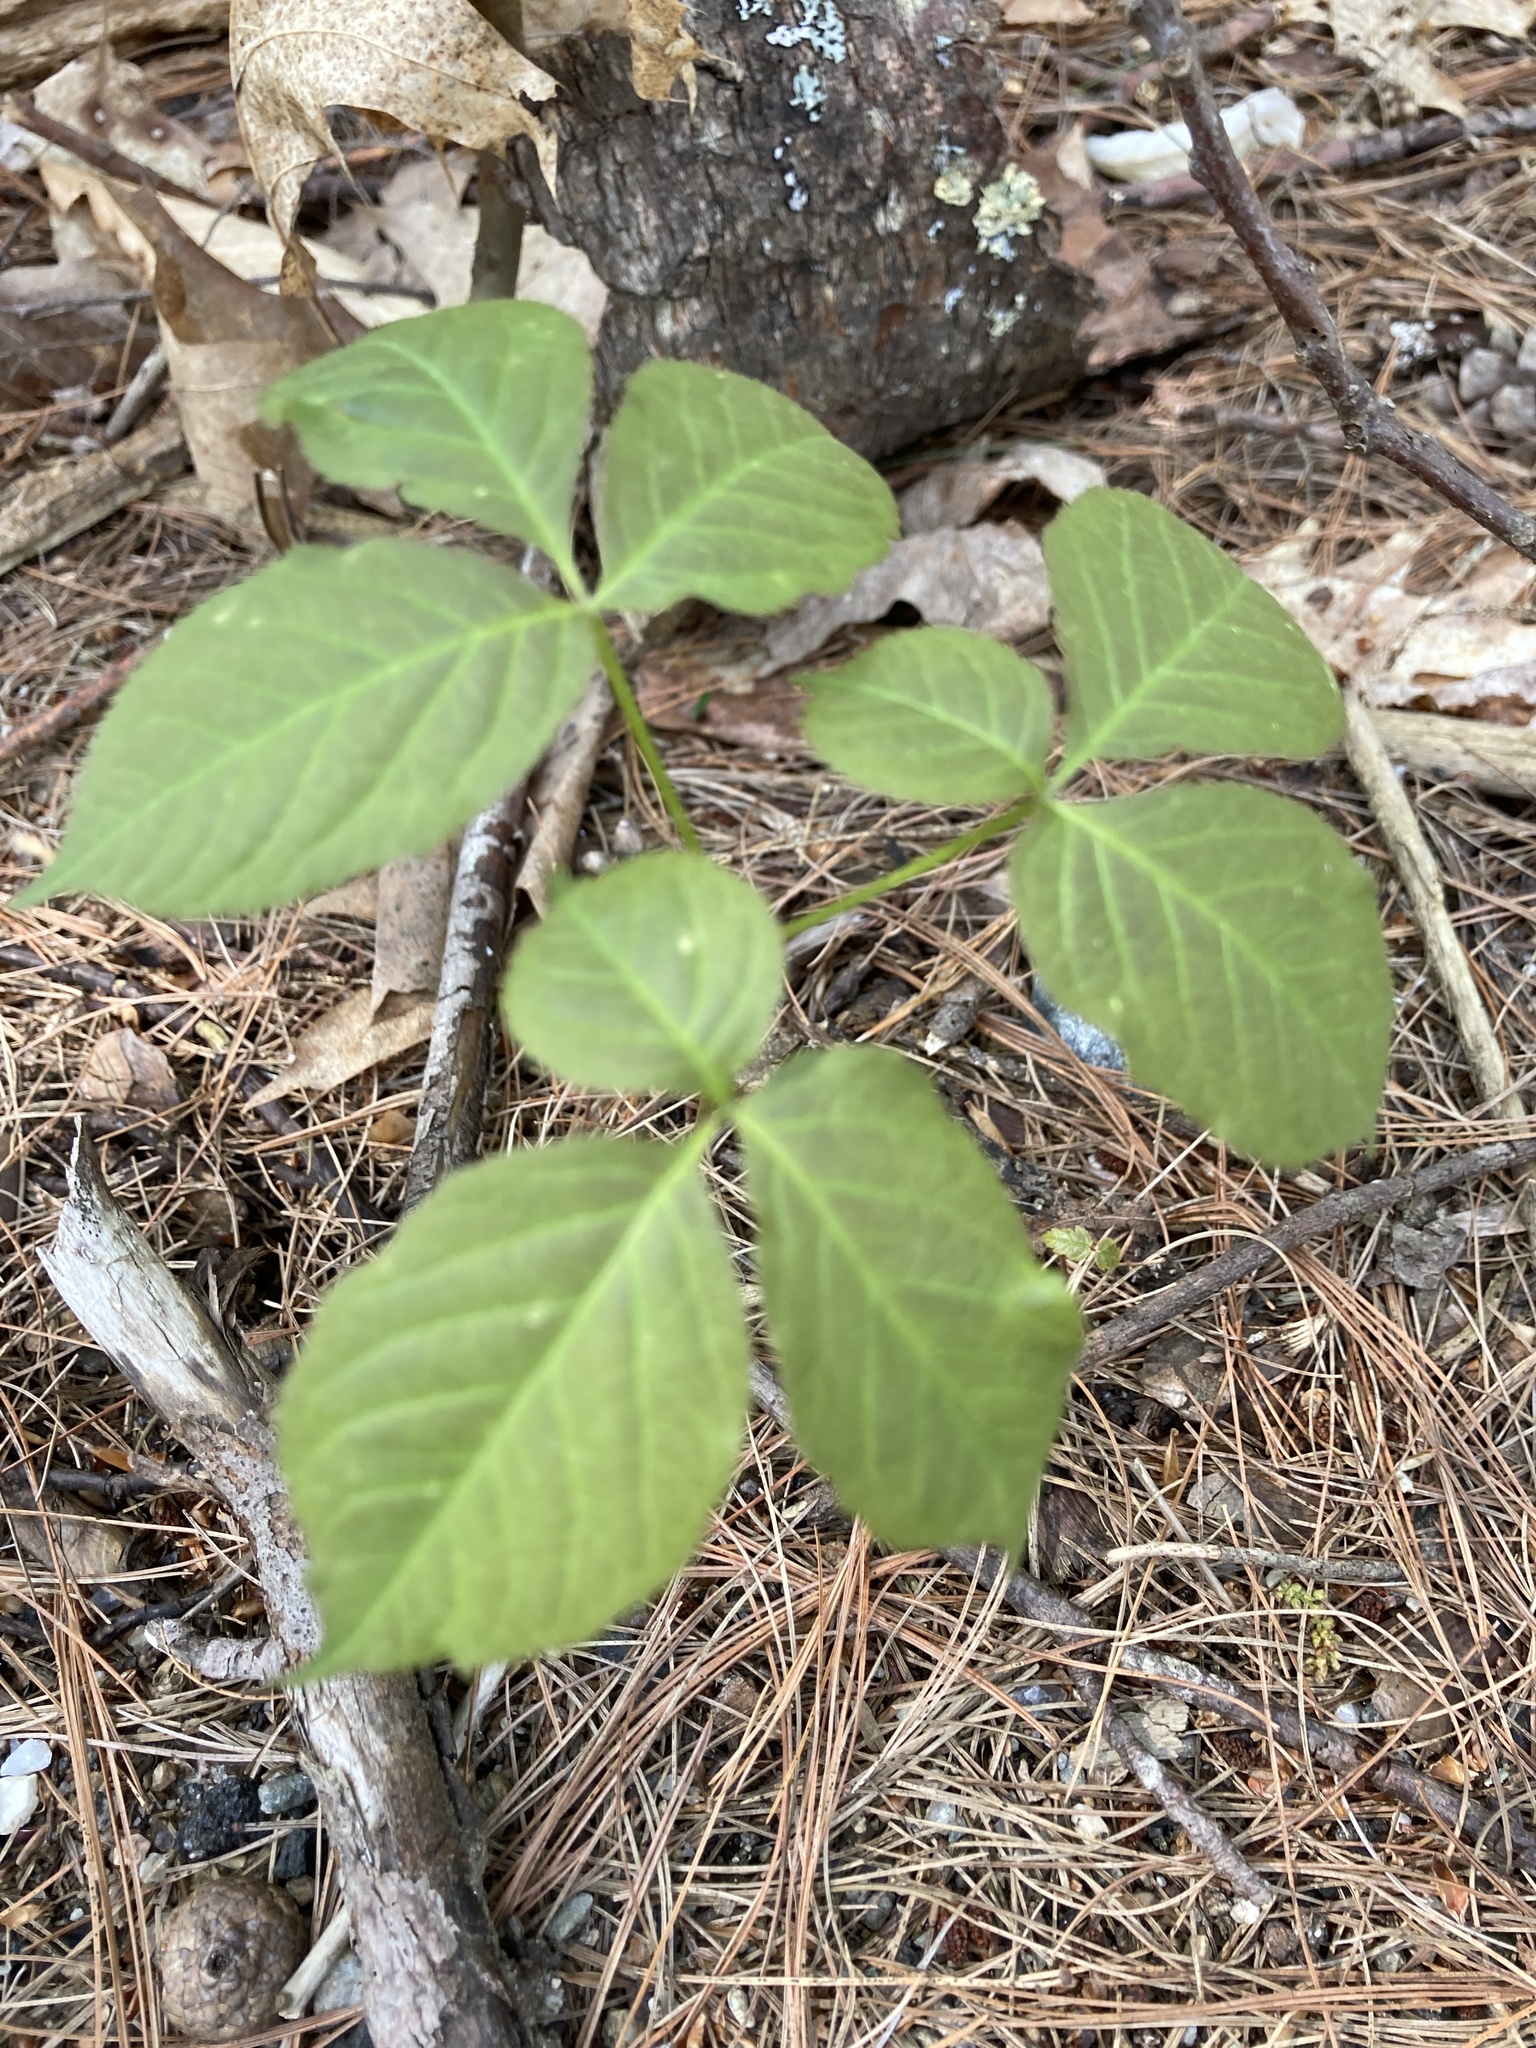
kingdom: Plantae
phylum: Tracheophyta
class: Magnoliopsida
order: Apiales
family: Araliaceae
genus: Aralia
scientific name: Aralia nudicaulis
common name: Wild sarsaparilla
